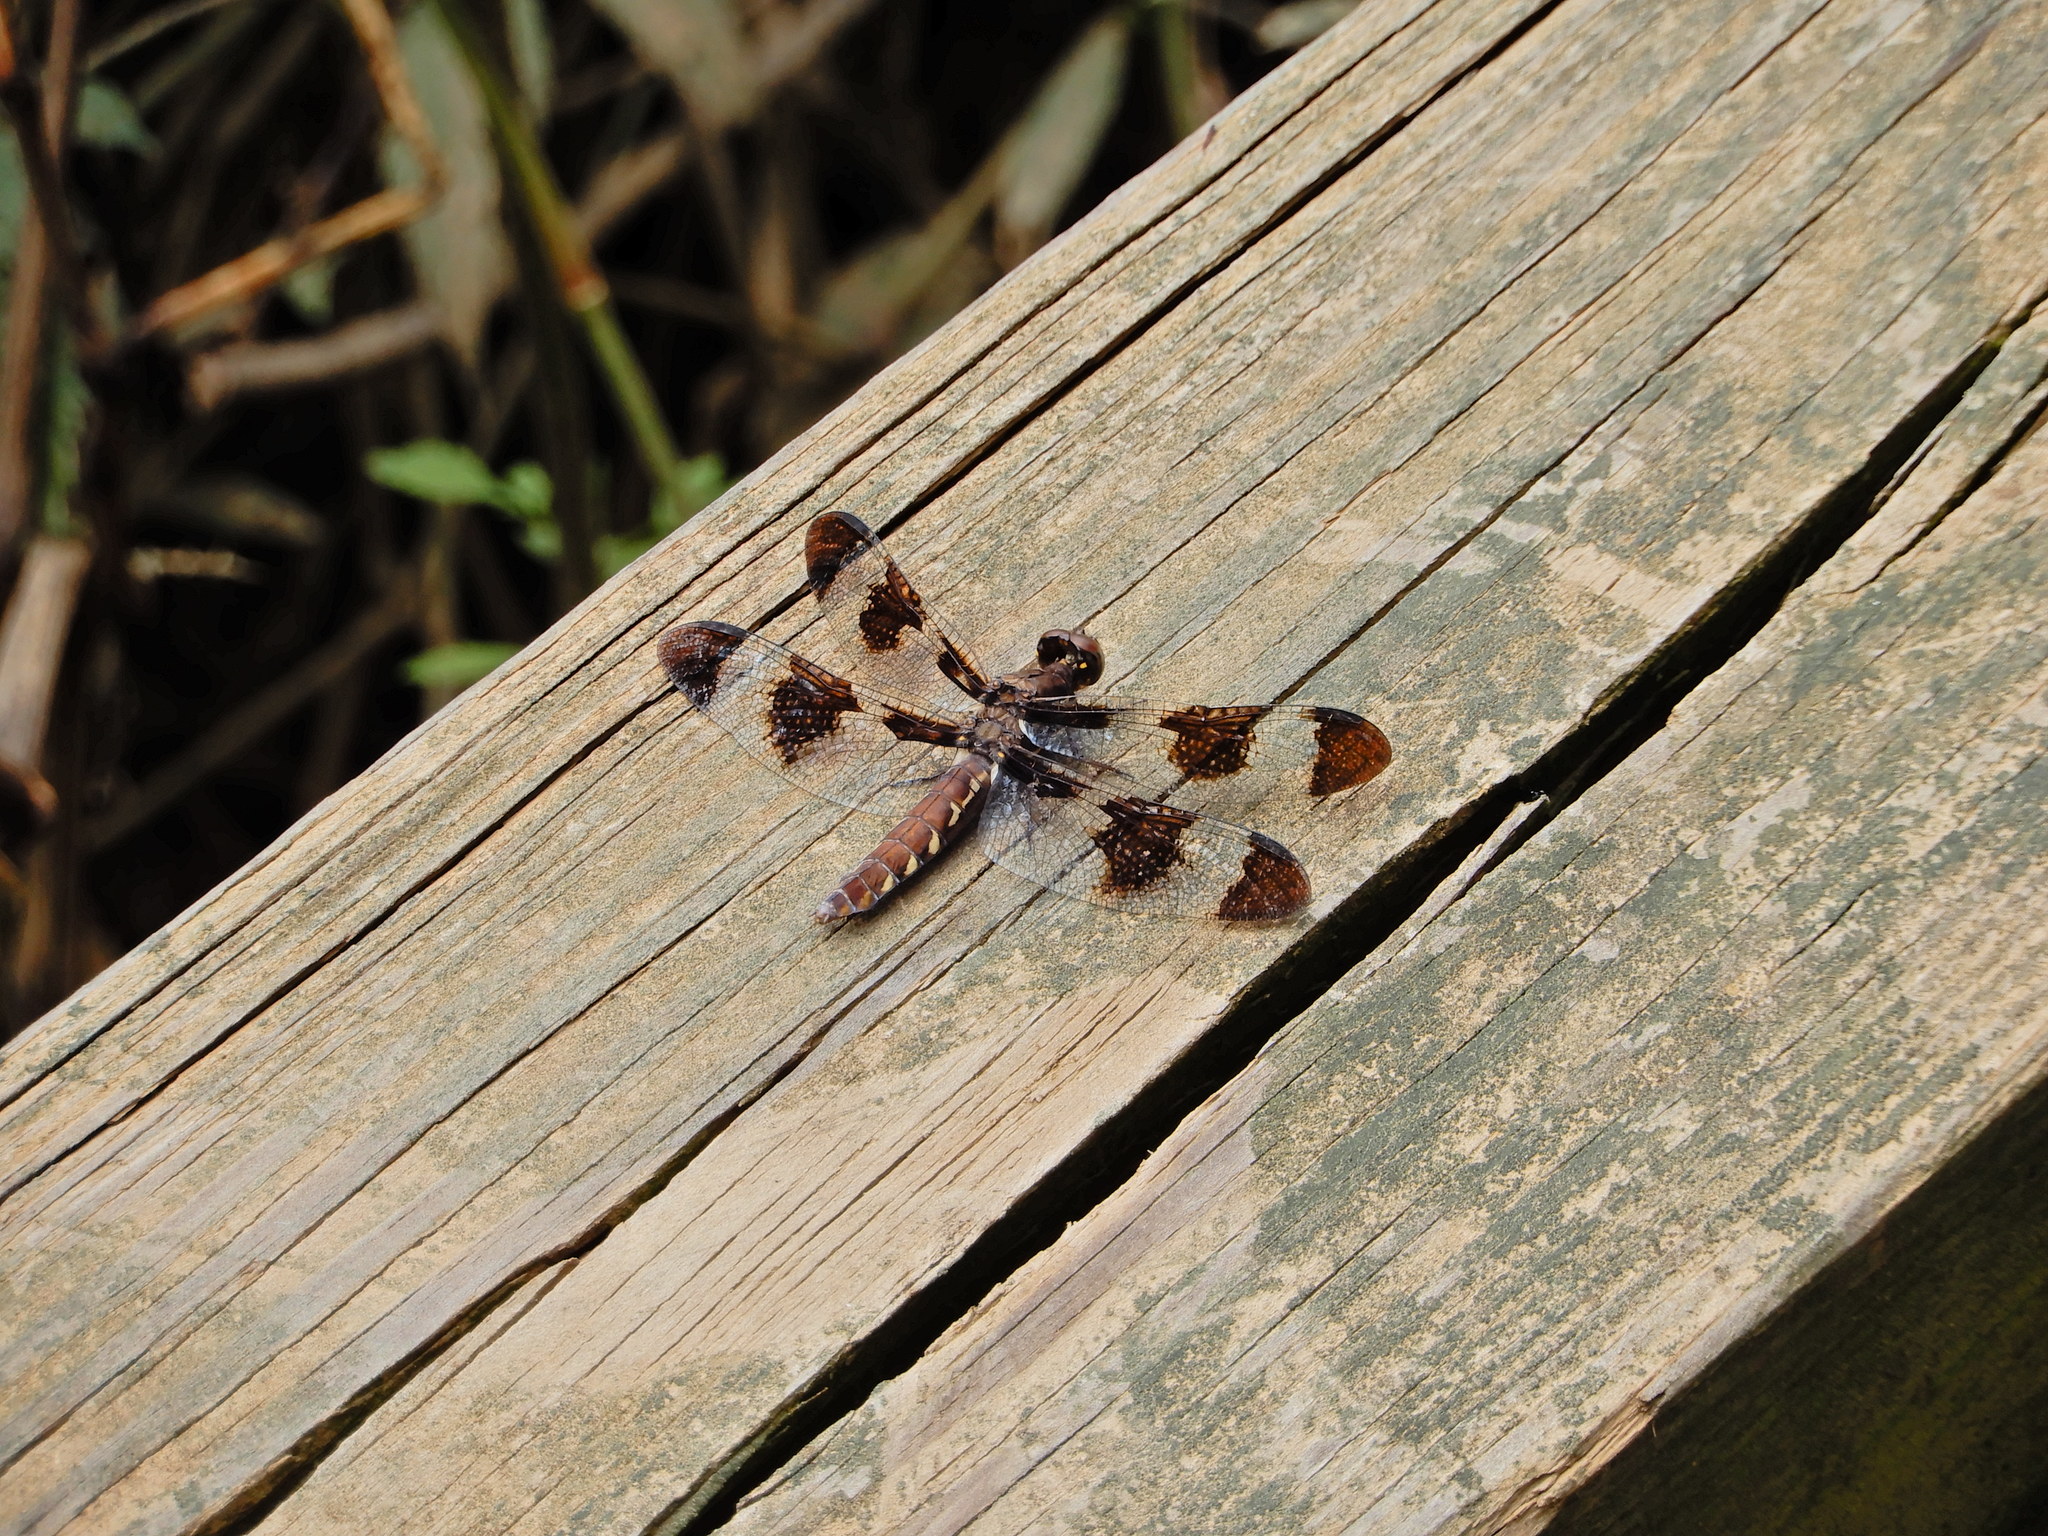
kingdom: Animalia
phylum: Arthropoda
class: Insecta
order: Odonata
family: Libellulidae
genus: Plathemis
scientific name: Plathemis lydia
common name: Common whitetail
